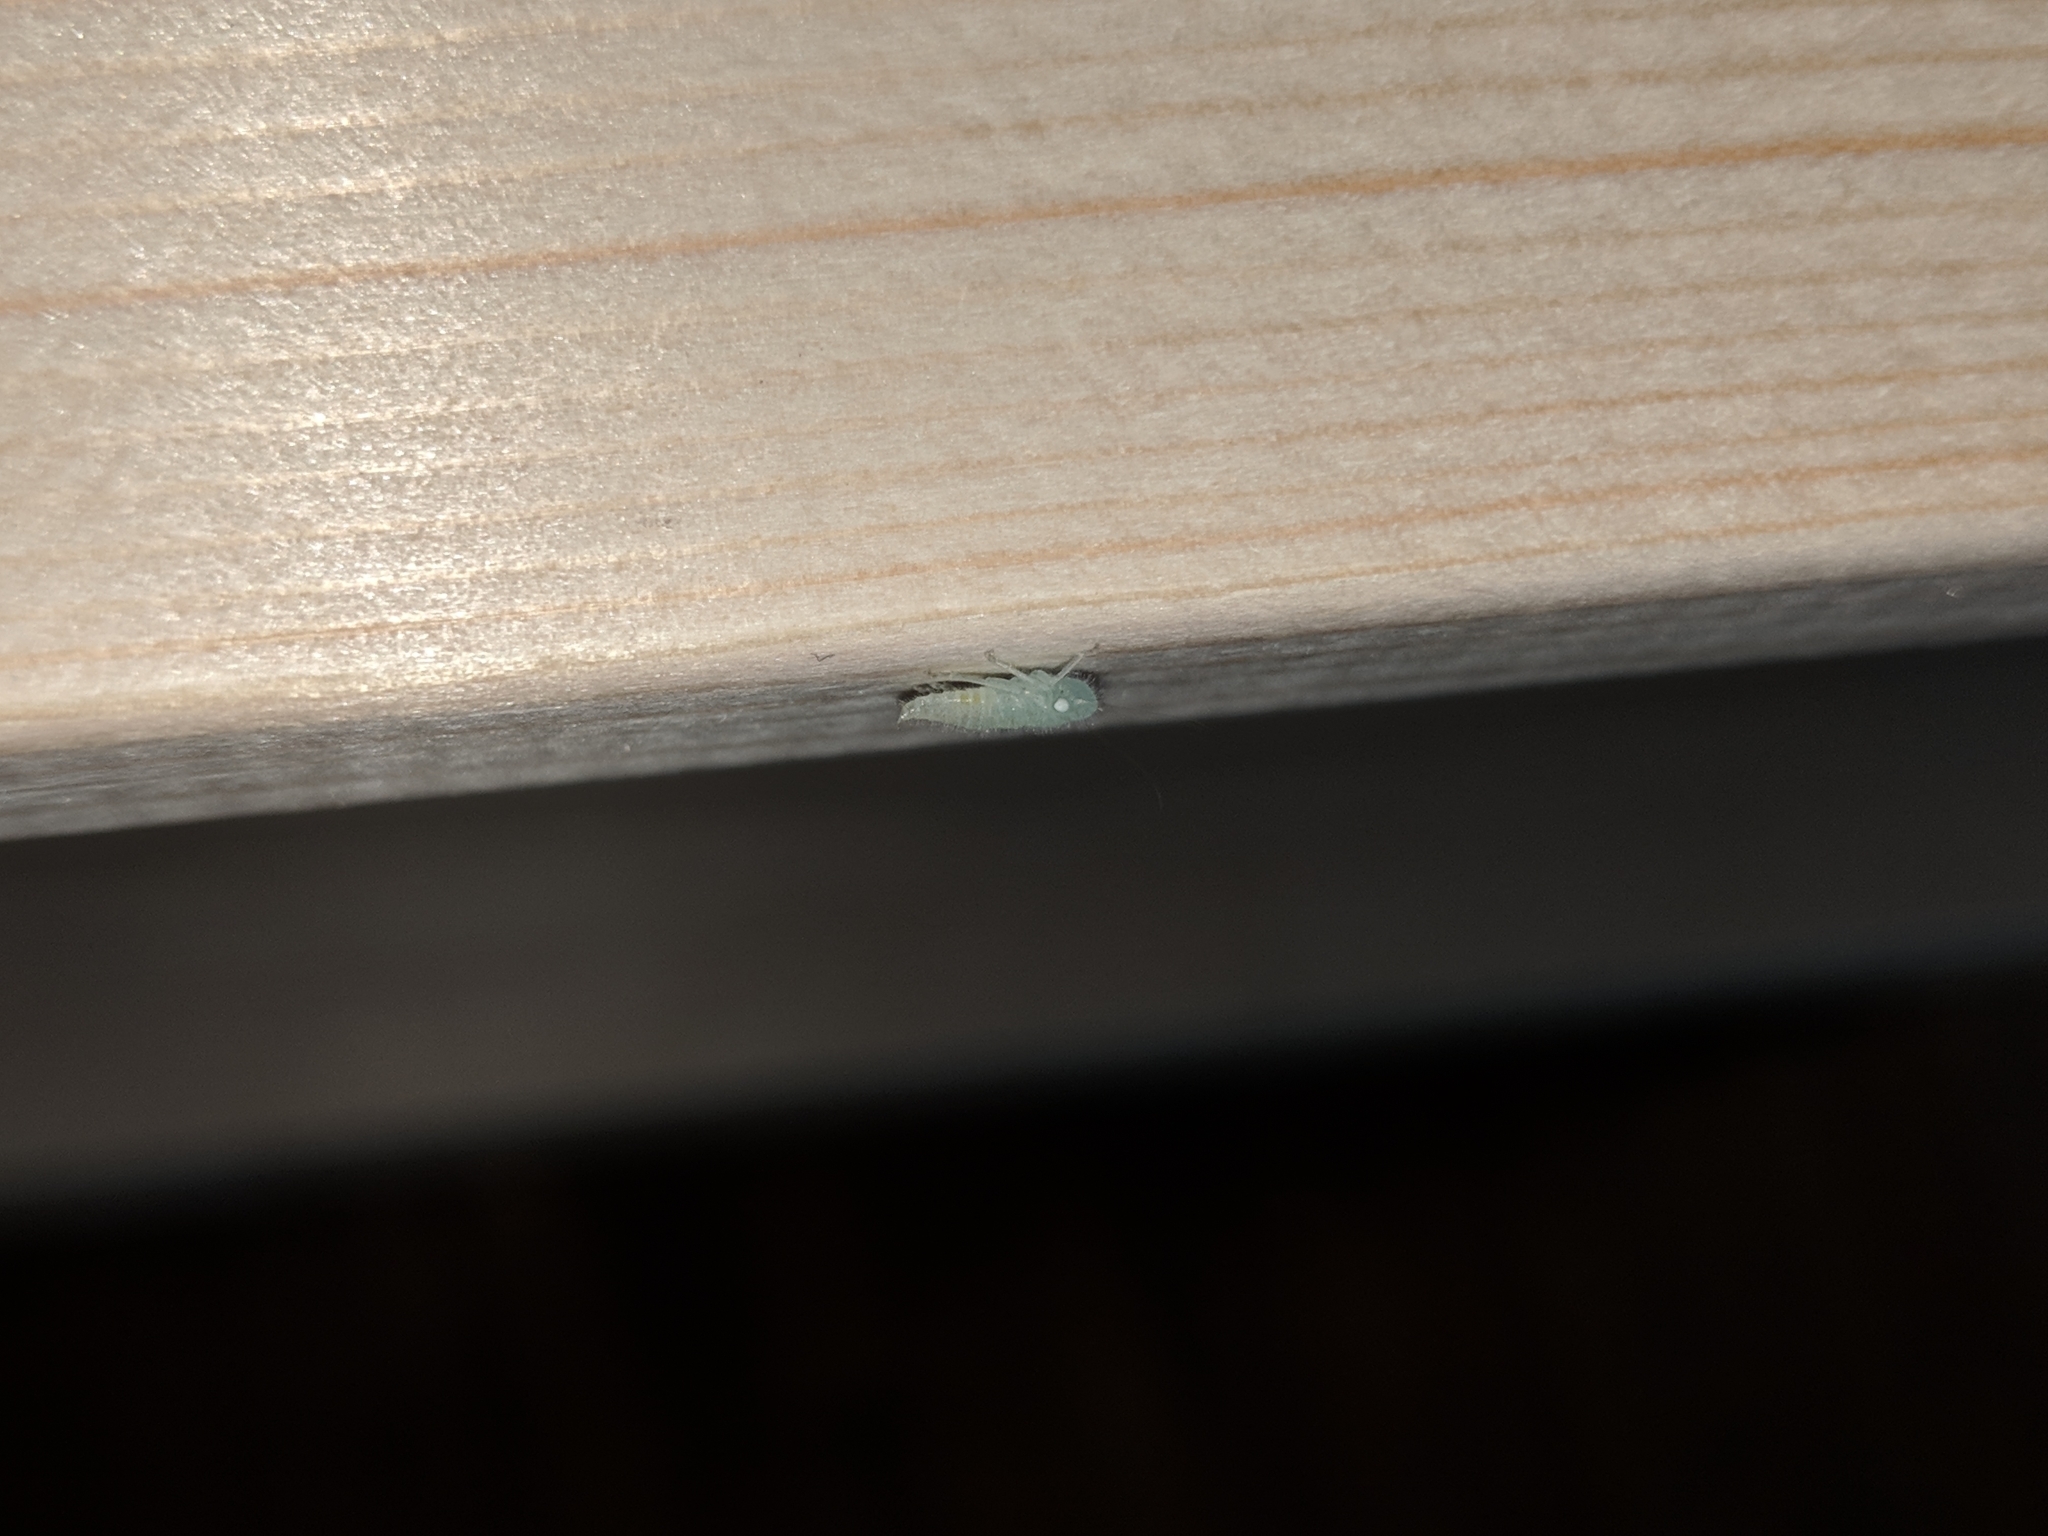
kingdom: Animalia
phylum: Arthropoda
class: Insecta
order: Hemiptera
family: Cicadellidae
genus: Paraulacizes
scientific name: Paraulacizes irrorata
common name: Speckled sharpshooter
